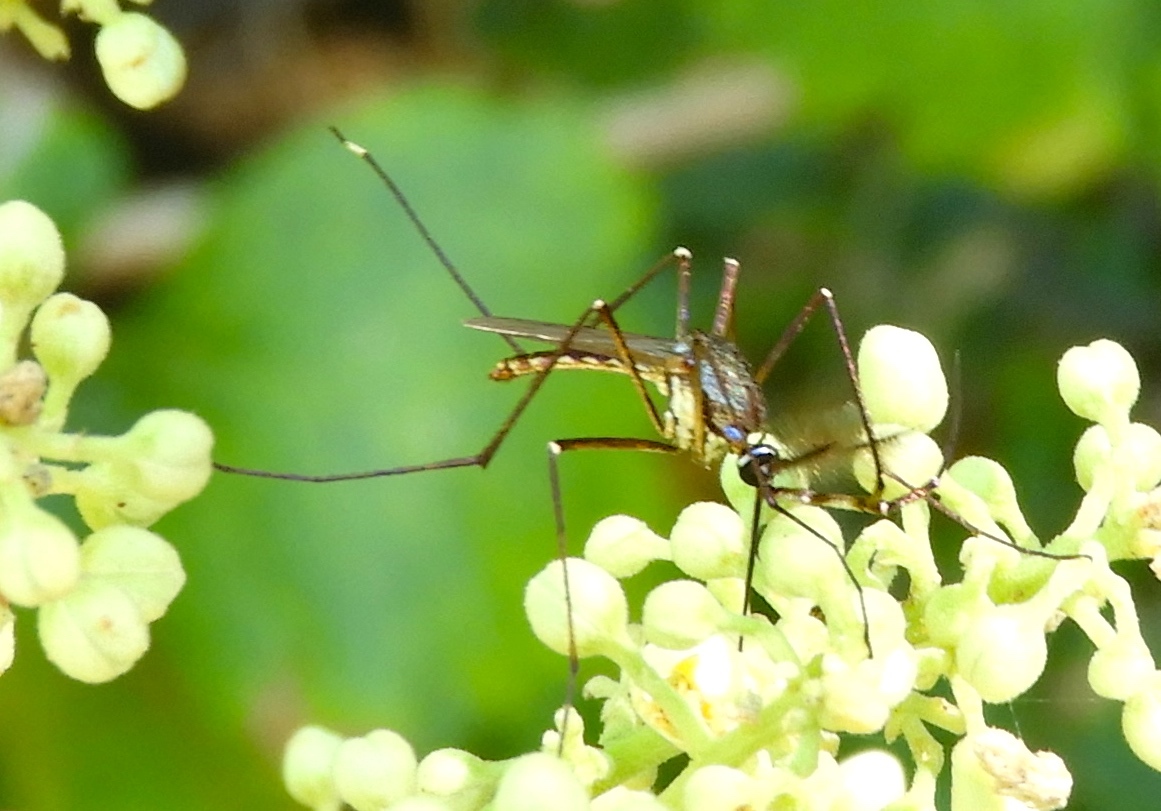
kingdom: Animalia
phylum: Arthropoda
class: Insecta
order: Diptera
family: Culicidae
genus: Toxorhynchites
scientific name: Toxorhynchites
